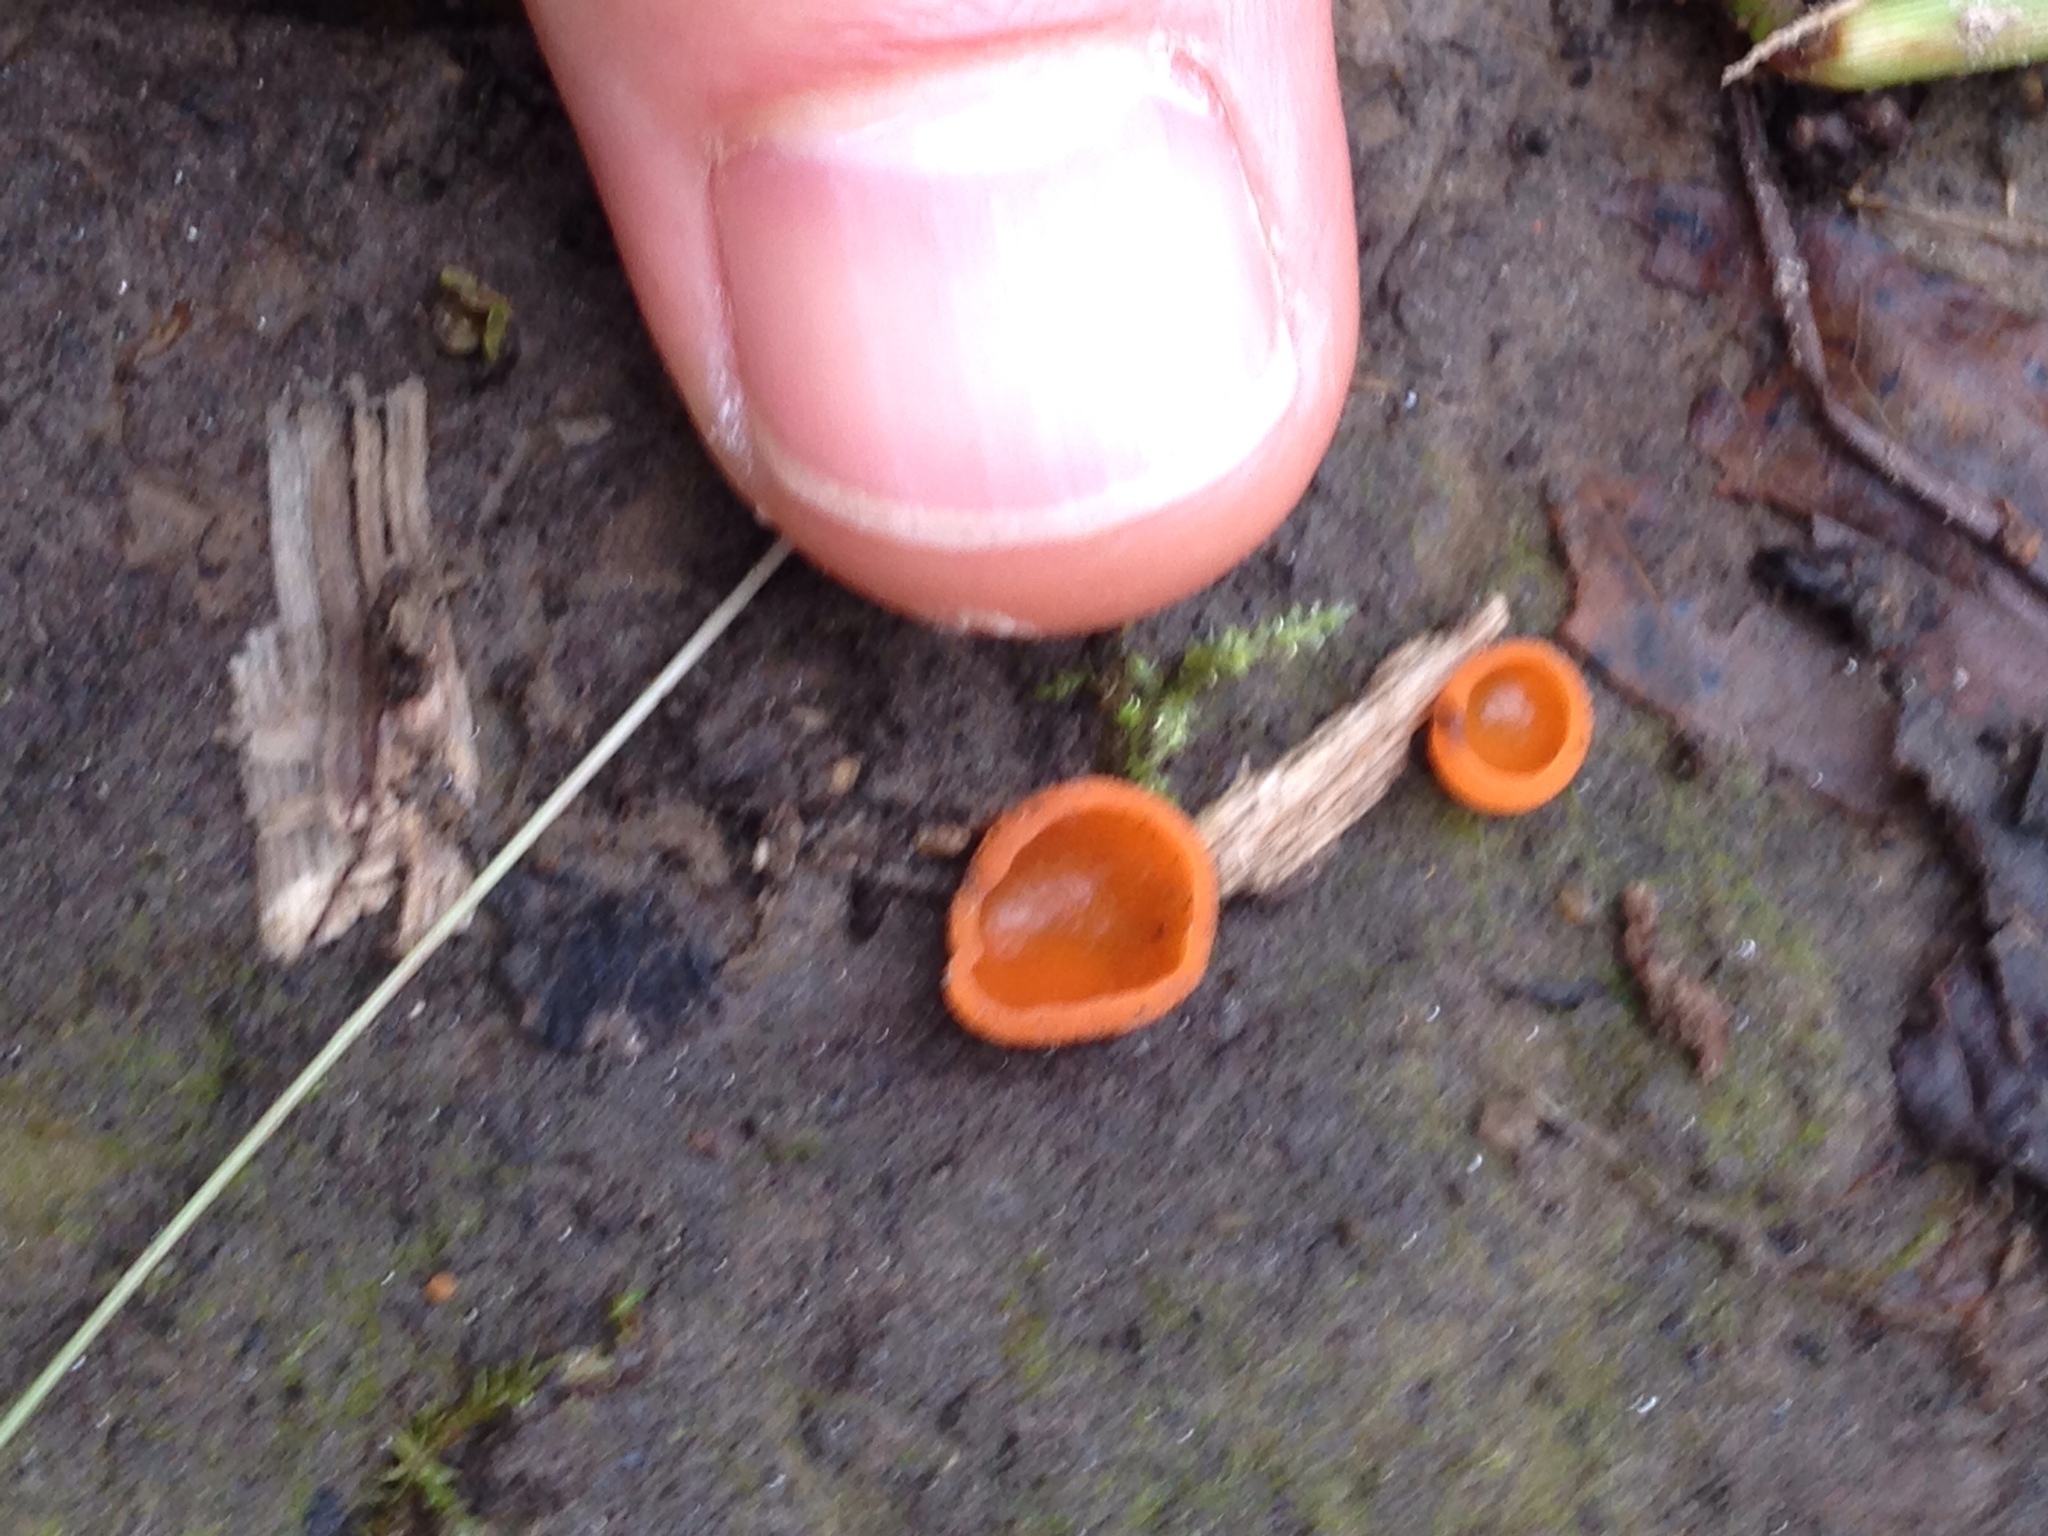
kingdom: Fungi
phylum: Ascomycota
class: Pezizomycetes
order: Pezizales
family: Pyronemataceae
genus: Aleuria
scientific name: Aleuria aurantia
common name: Orange peel fungus
